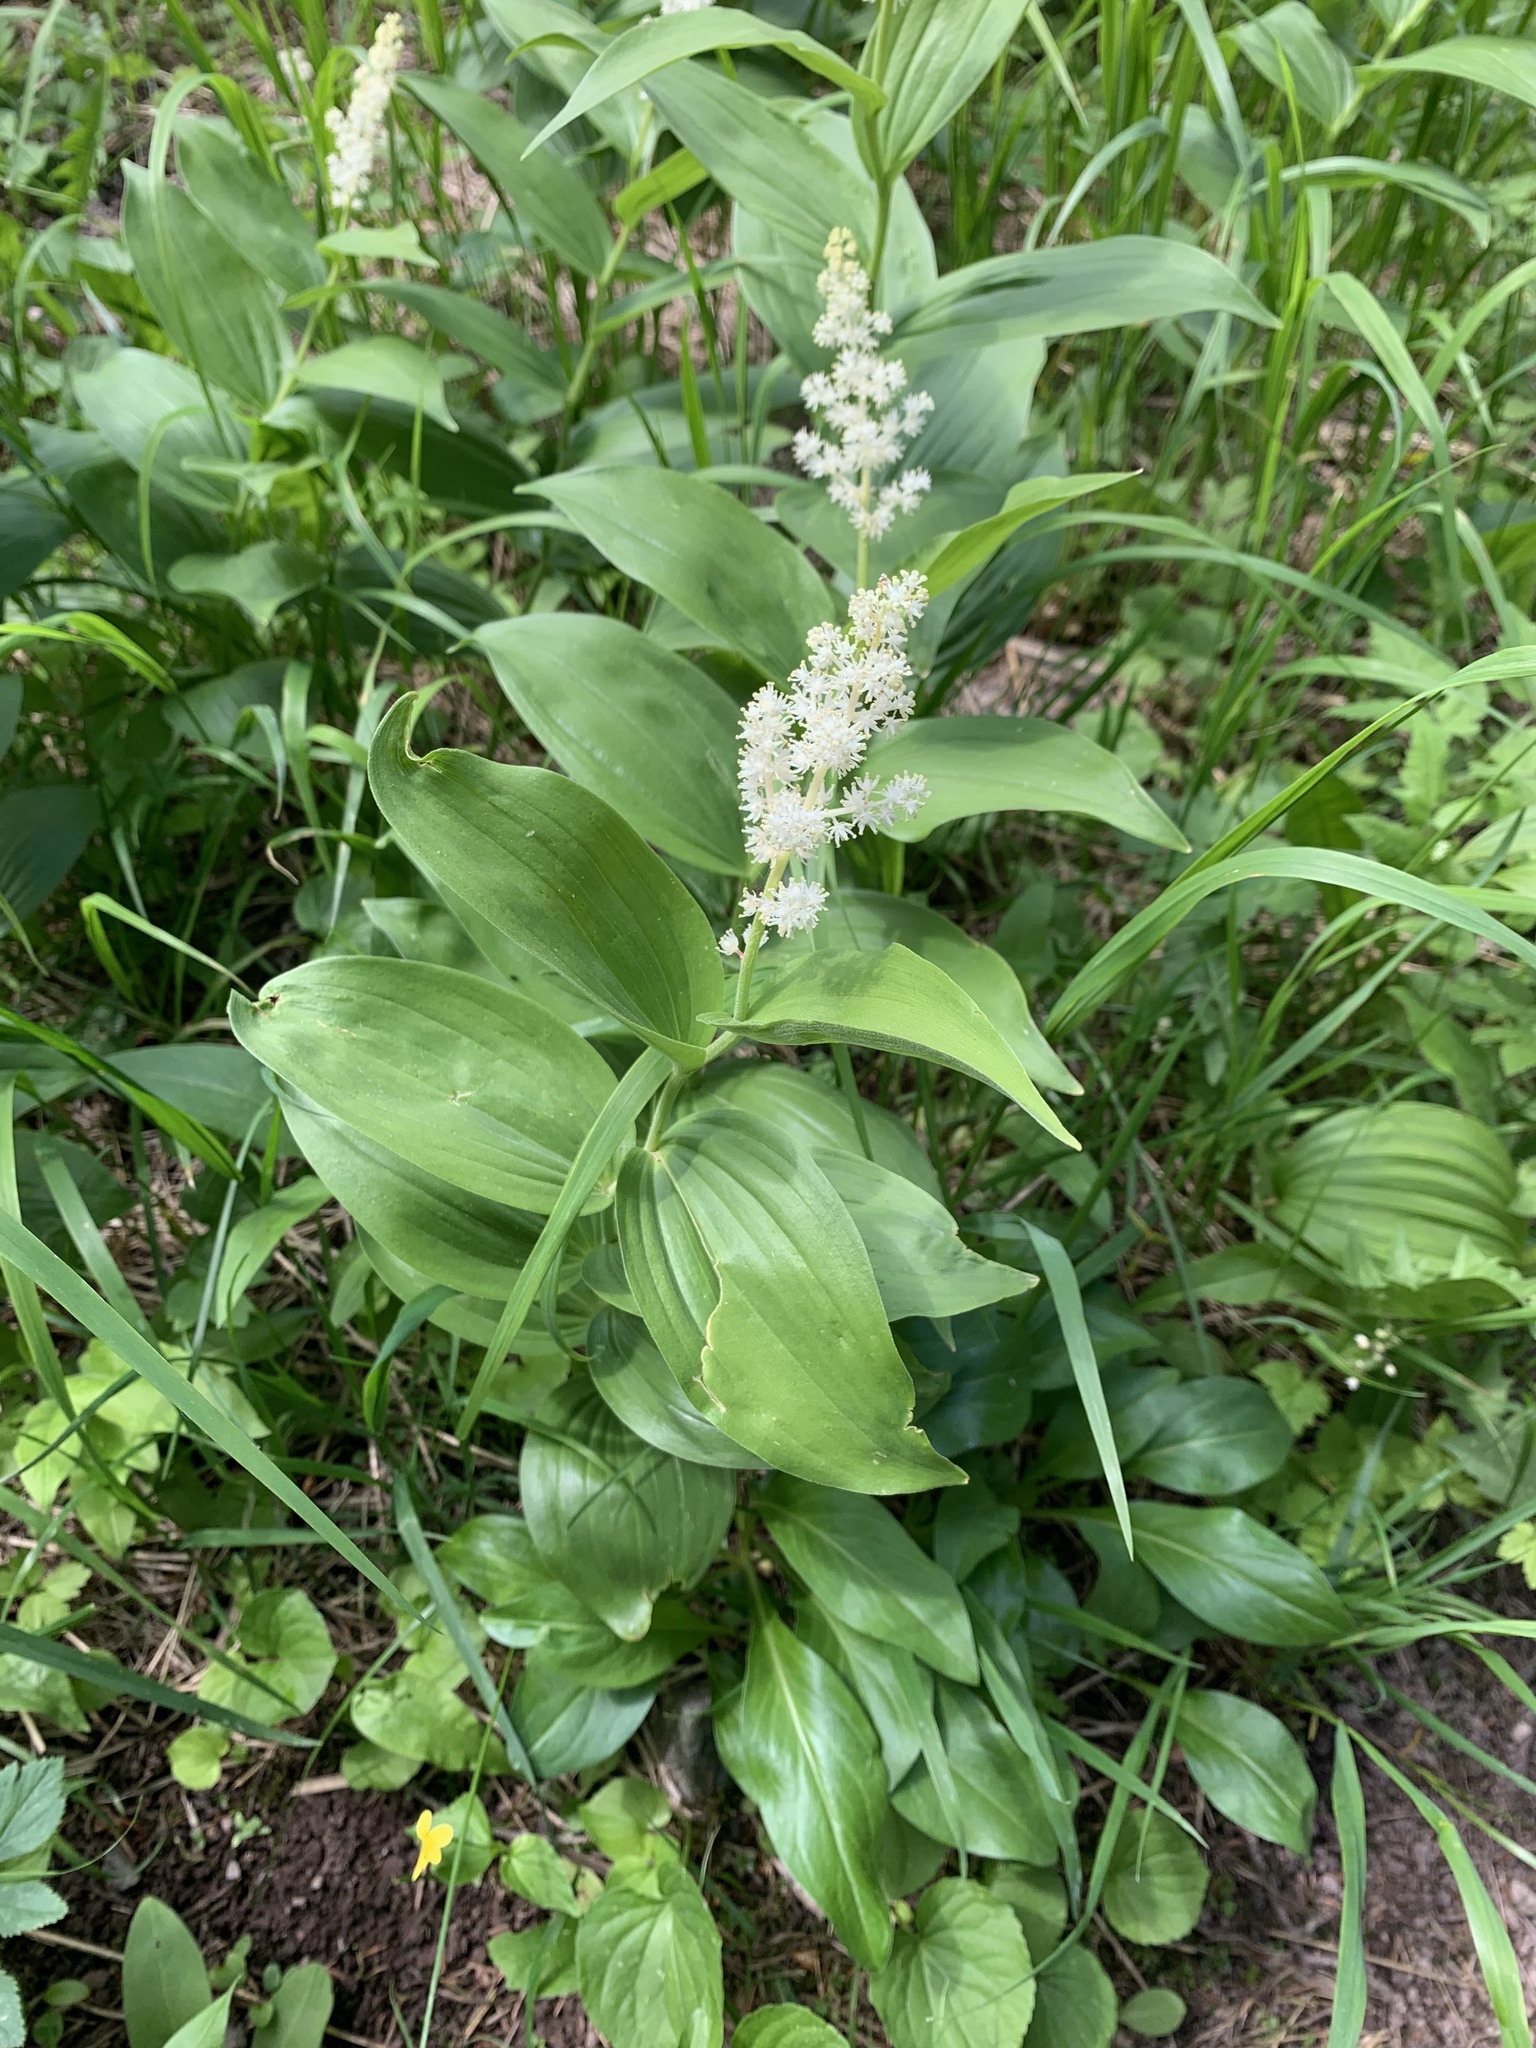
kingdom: Plantae
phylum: Tracheophyta
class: Liliopsida
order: Asparagales
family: Asparagaceae
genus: Maianthemum
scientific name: Maianthemum racemosum
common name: False spikenard
